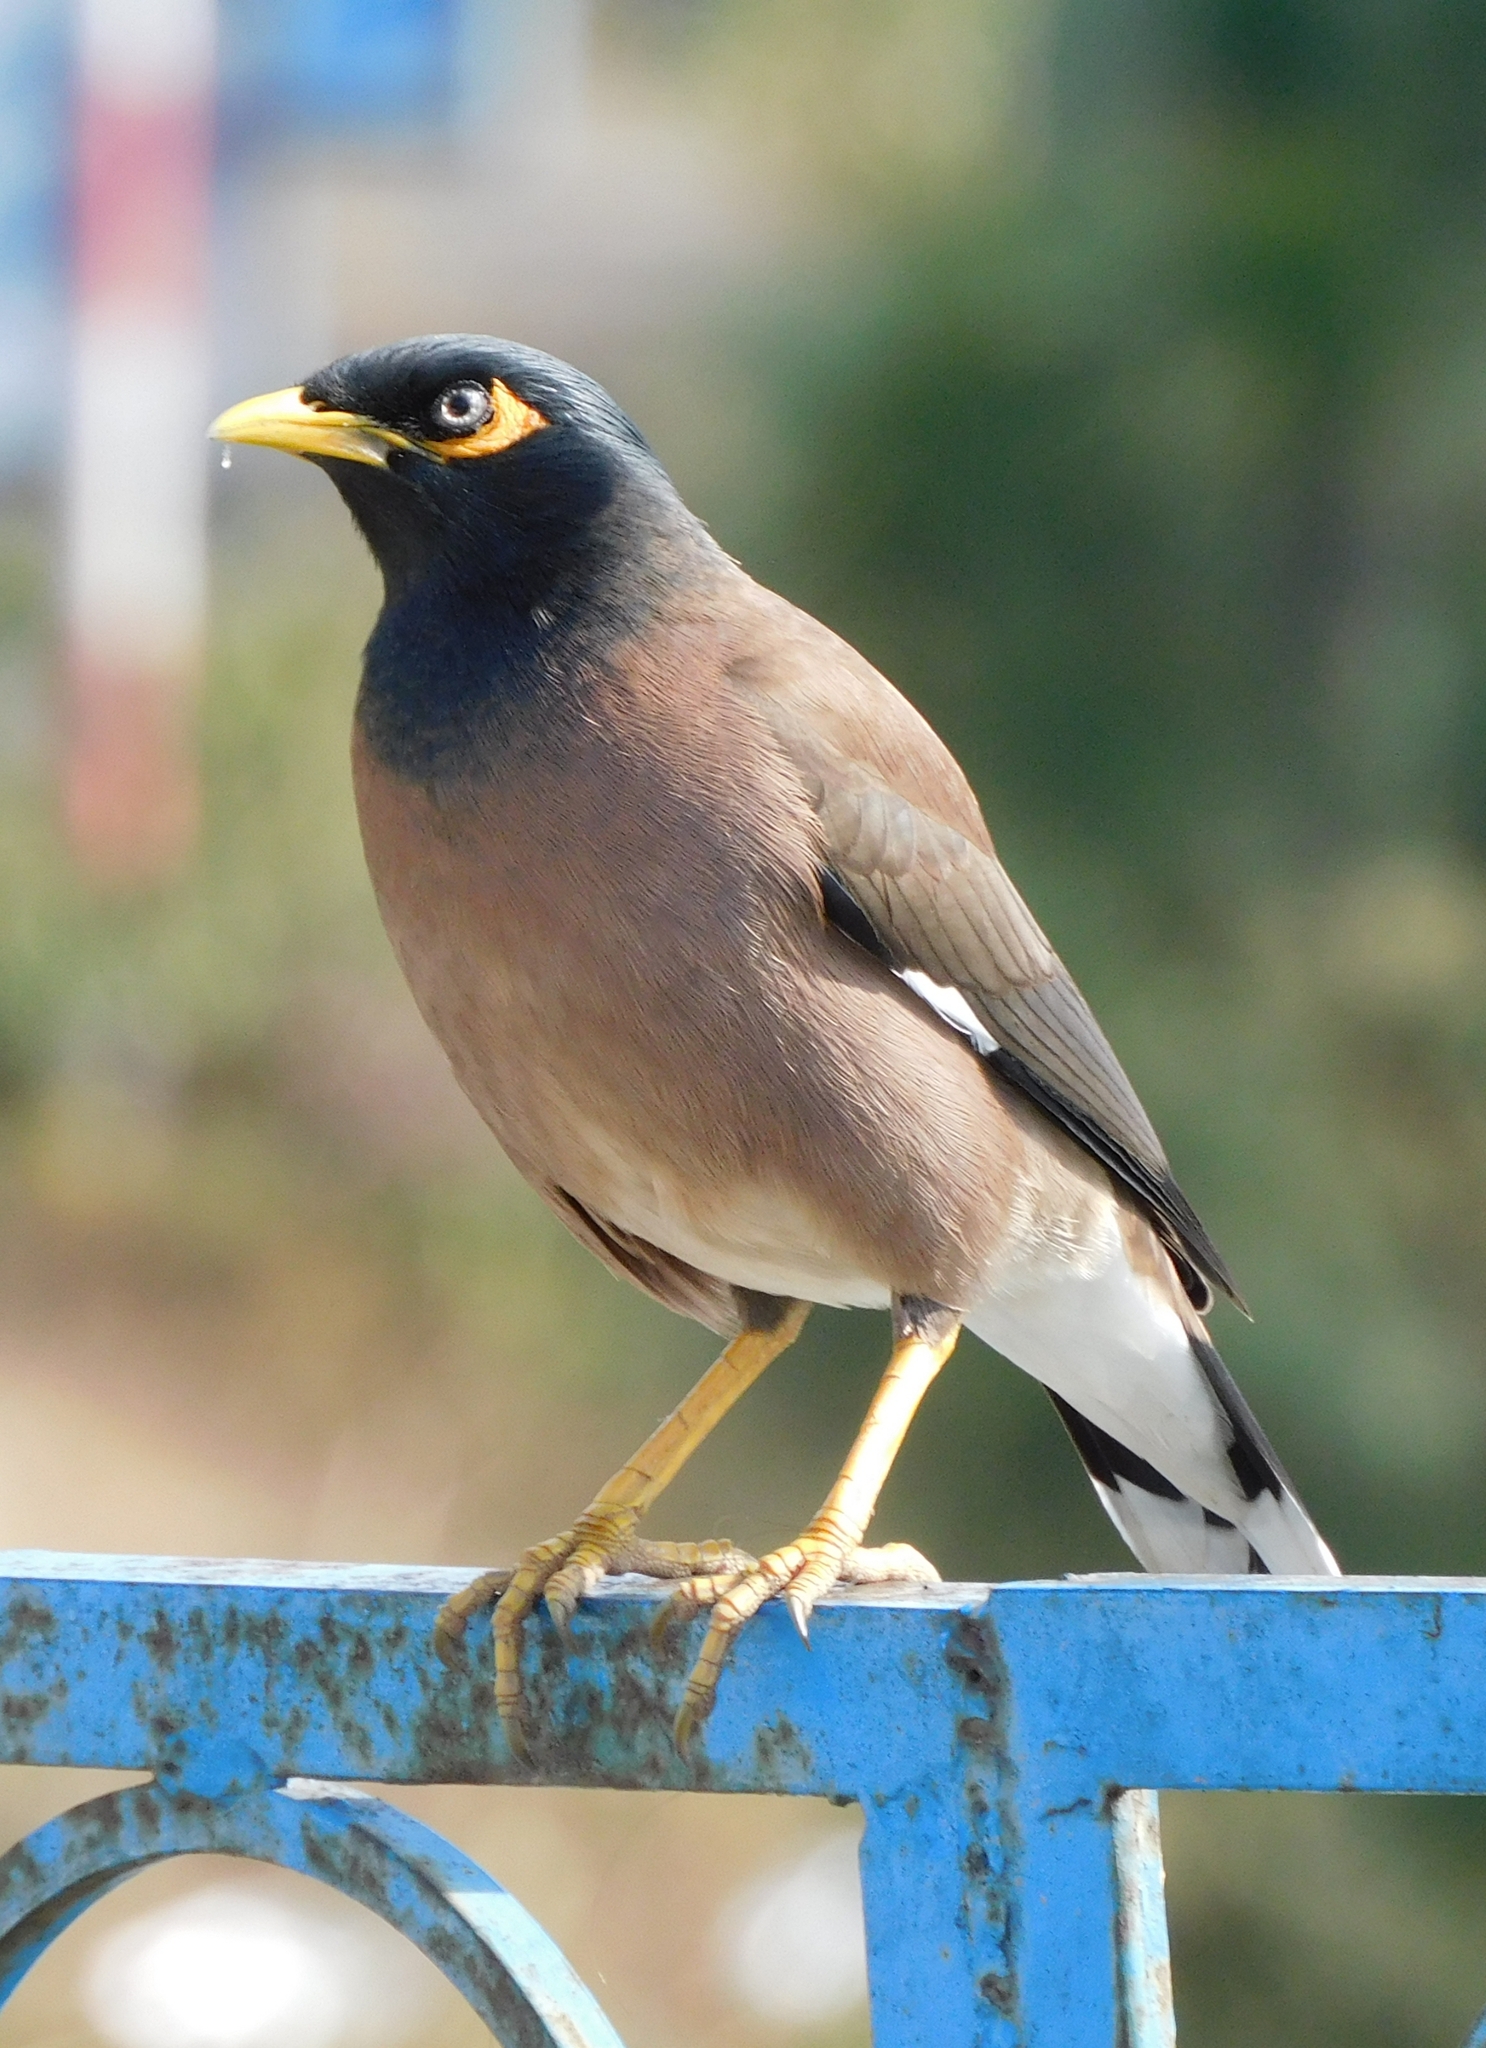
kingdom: Animalia
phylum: Chordata
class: Aves
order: Passeriformes
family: Sturnidae
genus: Acridotheres
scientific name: Acridotheres tristis
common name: Common myna
